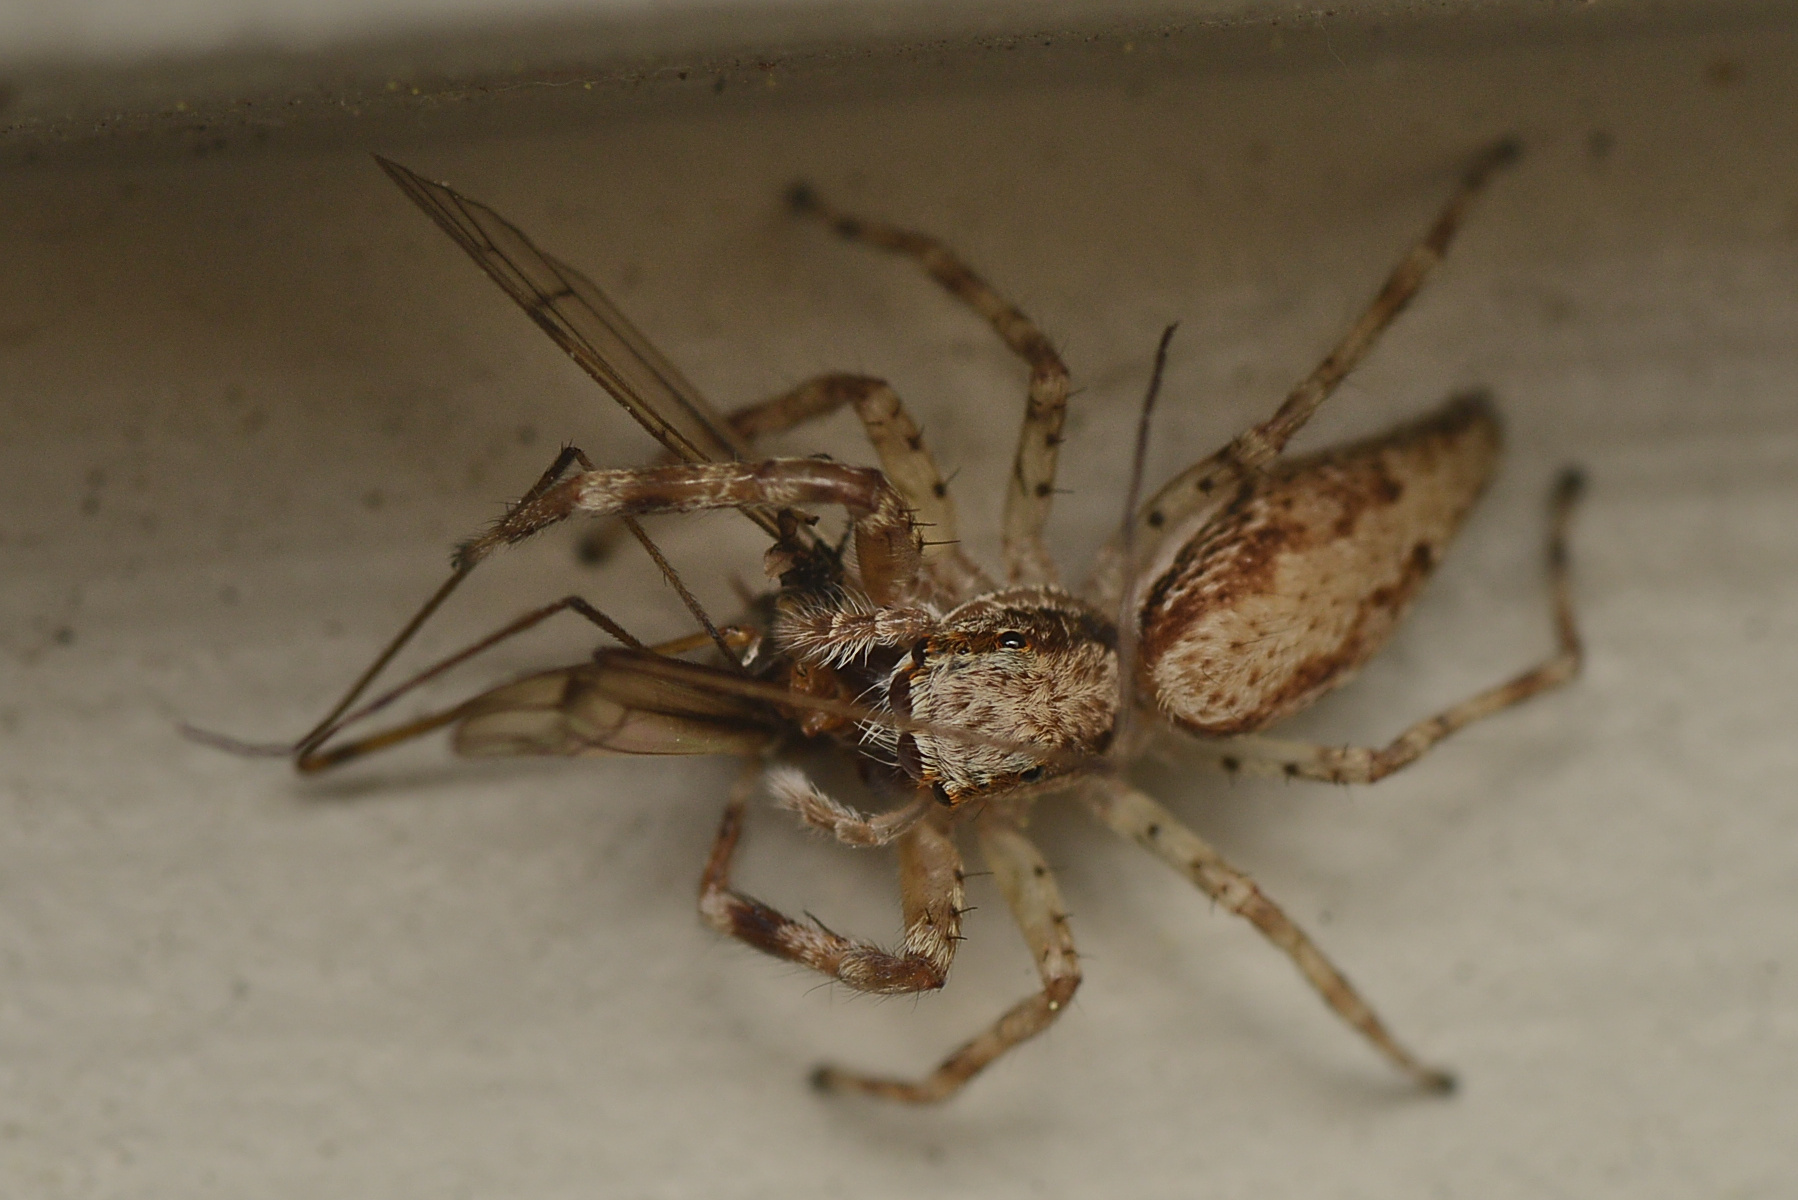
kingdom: Animalia
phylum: Arthropoda
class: Arachnida
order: Araneae
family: Salticidae
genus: Helpis
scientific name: Helpis minitabunda
